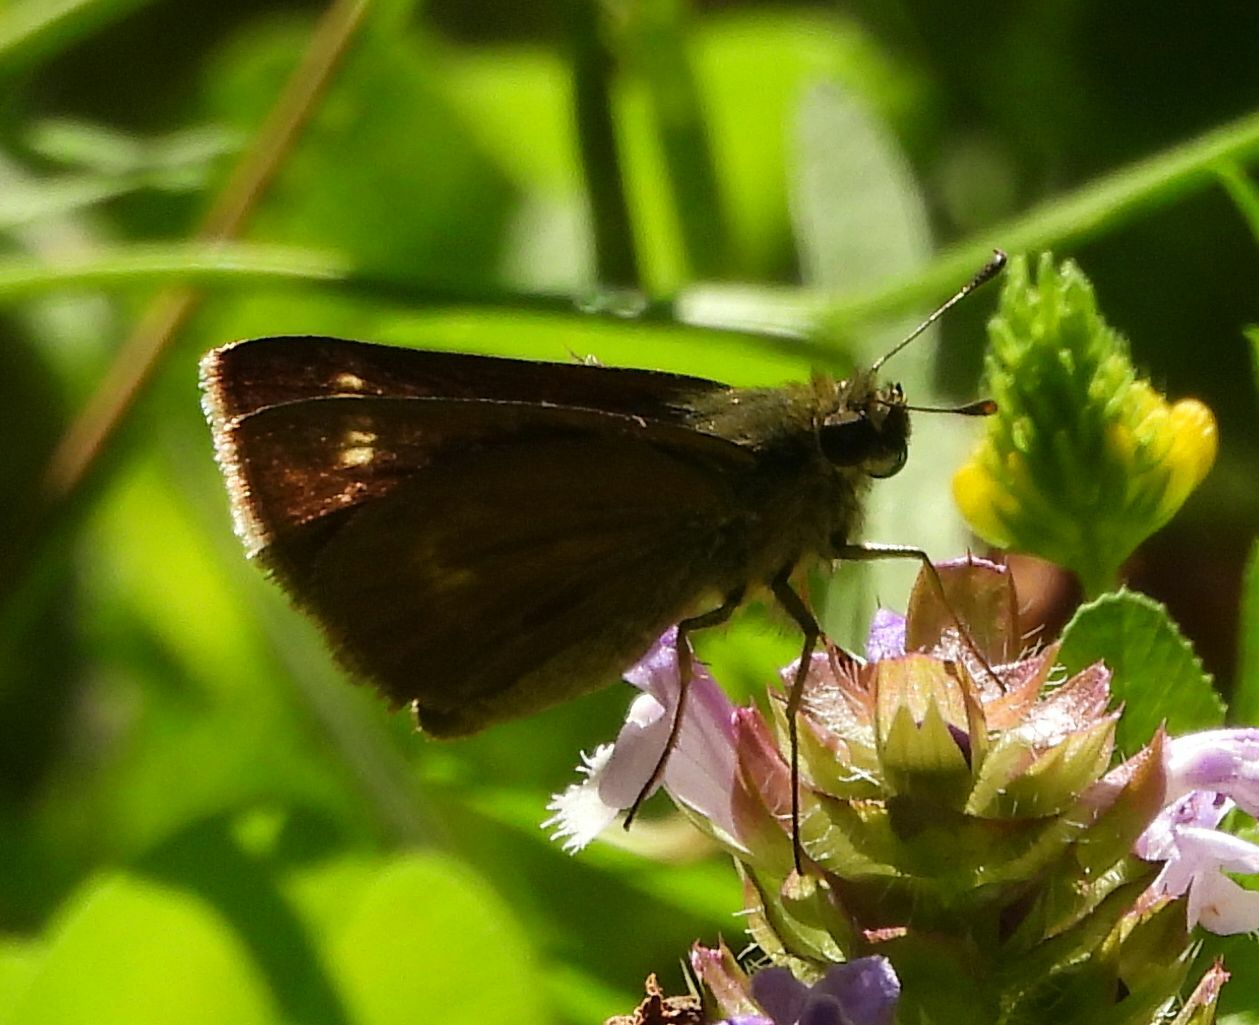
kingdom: Animalia
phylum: Arthropoda
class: Insecta
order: Lepidoptera
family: Hesperiidae
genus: Polites
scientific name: Polites egeremet
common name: Northern broken-dash
